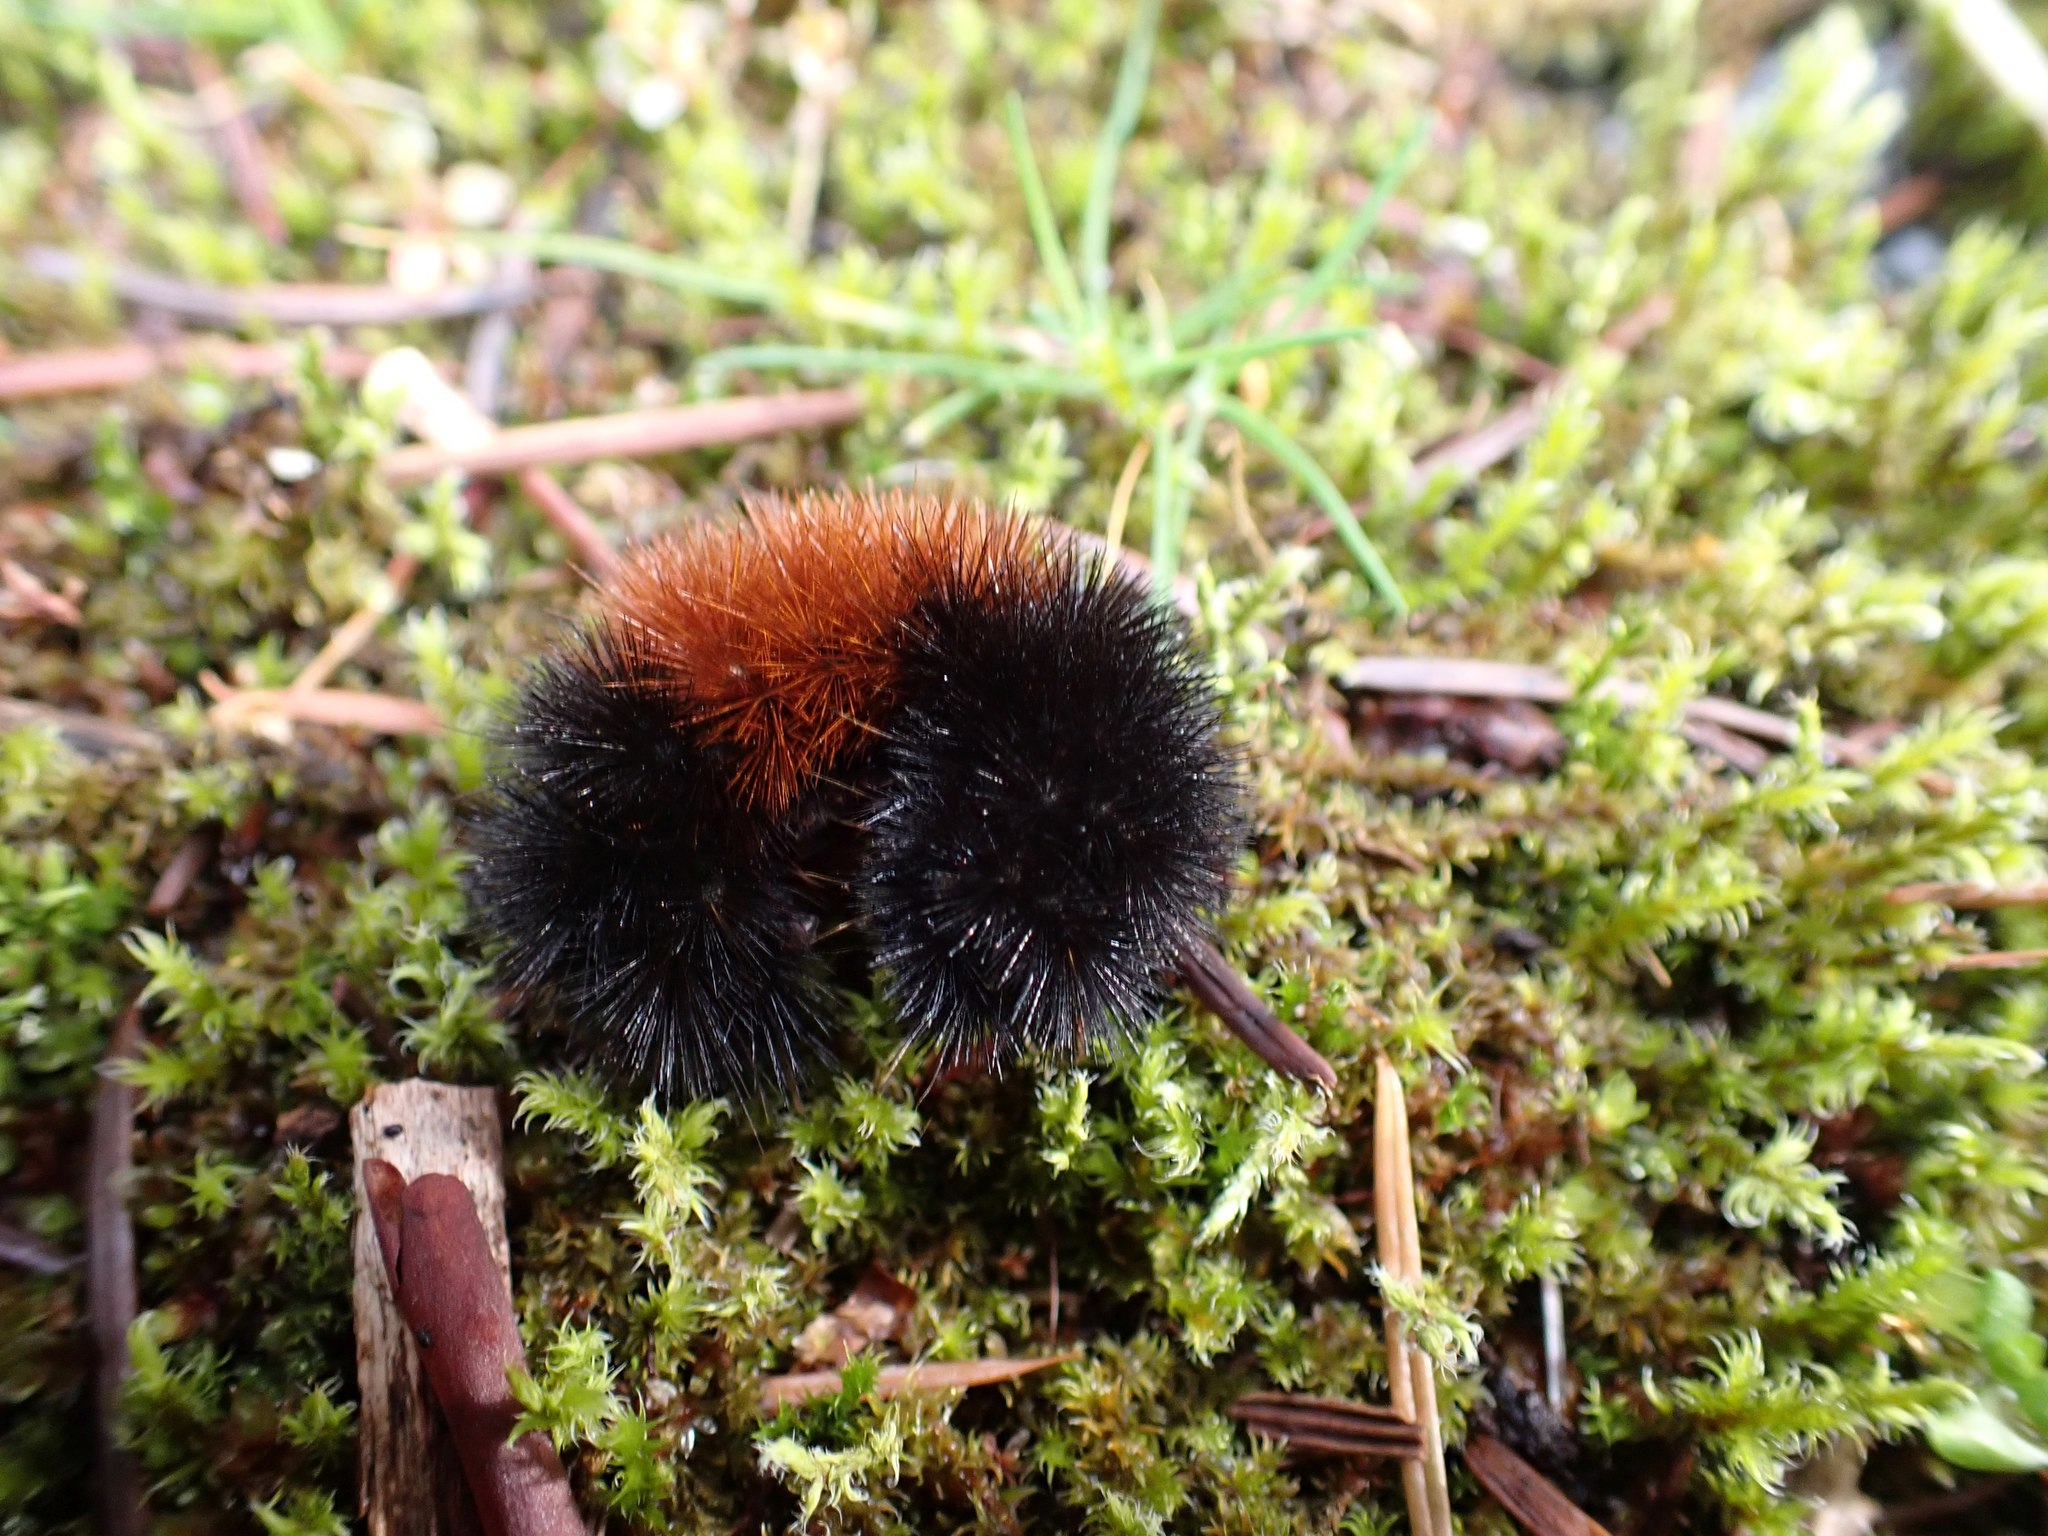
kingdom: Animalia
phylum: Arthropoda
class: Insecta
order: Lepidoptera
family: Erebidae
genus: Pyrrharctia
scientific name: Pyrrharctia isabella
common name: Isabella tiger moth
